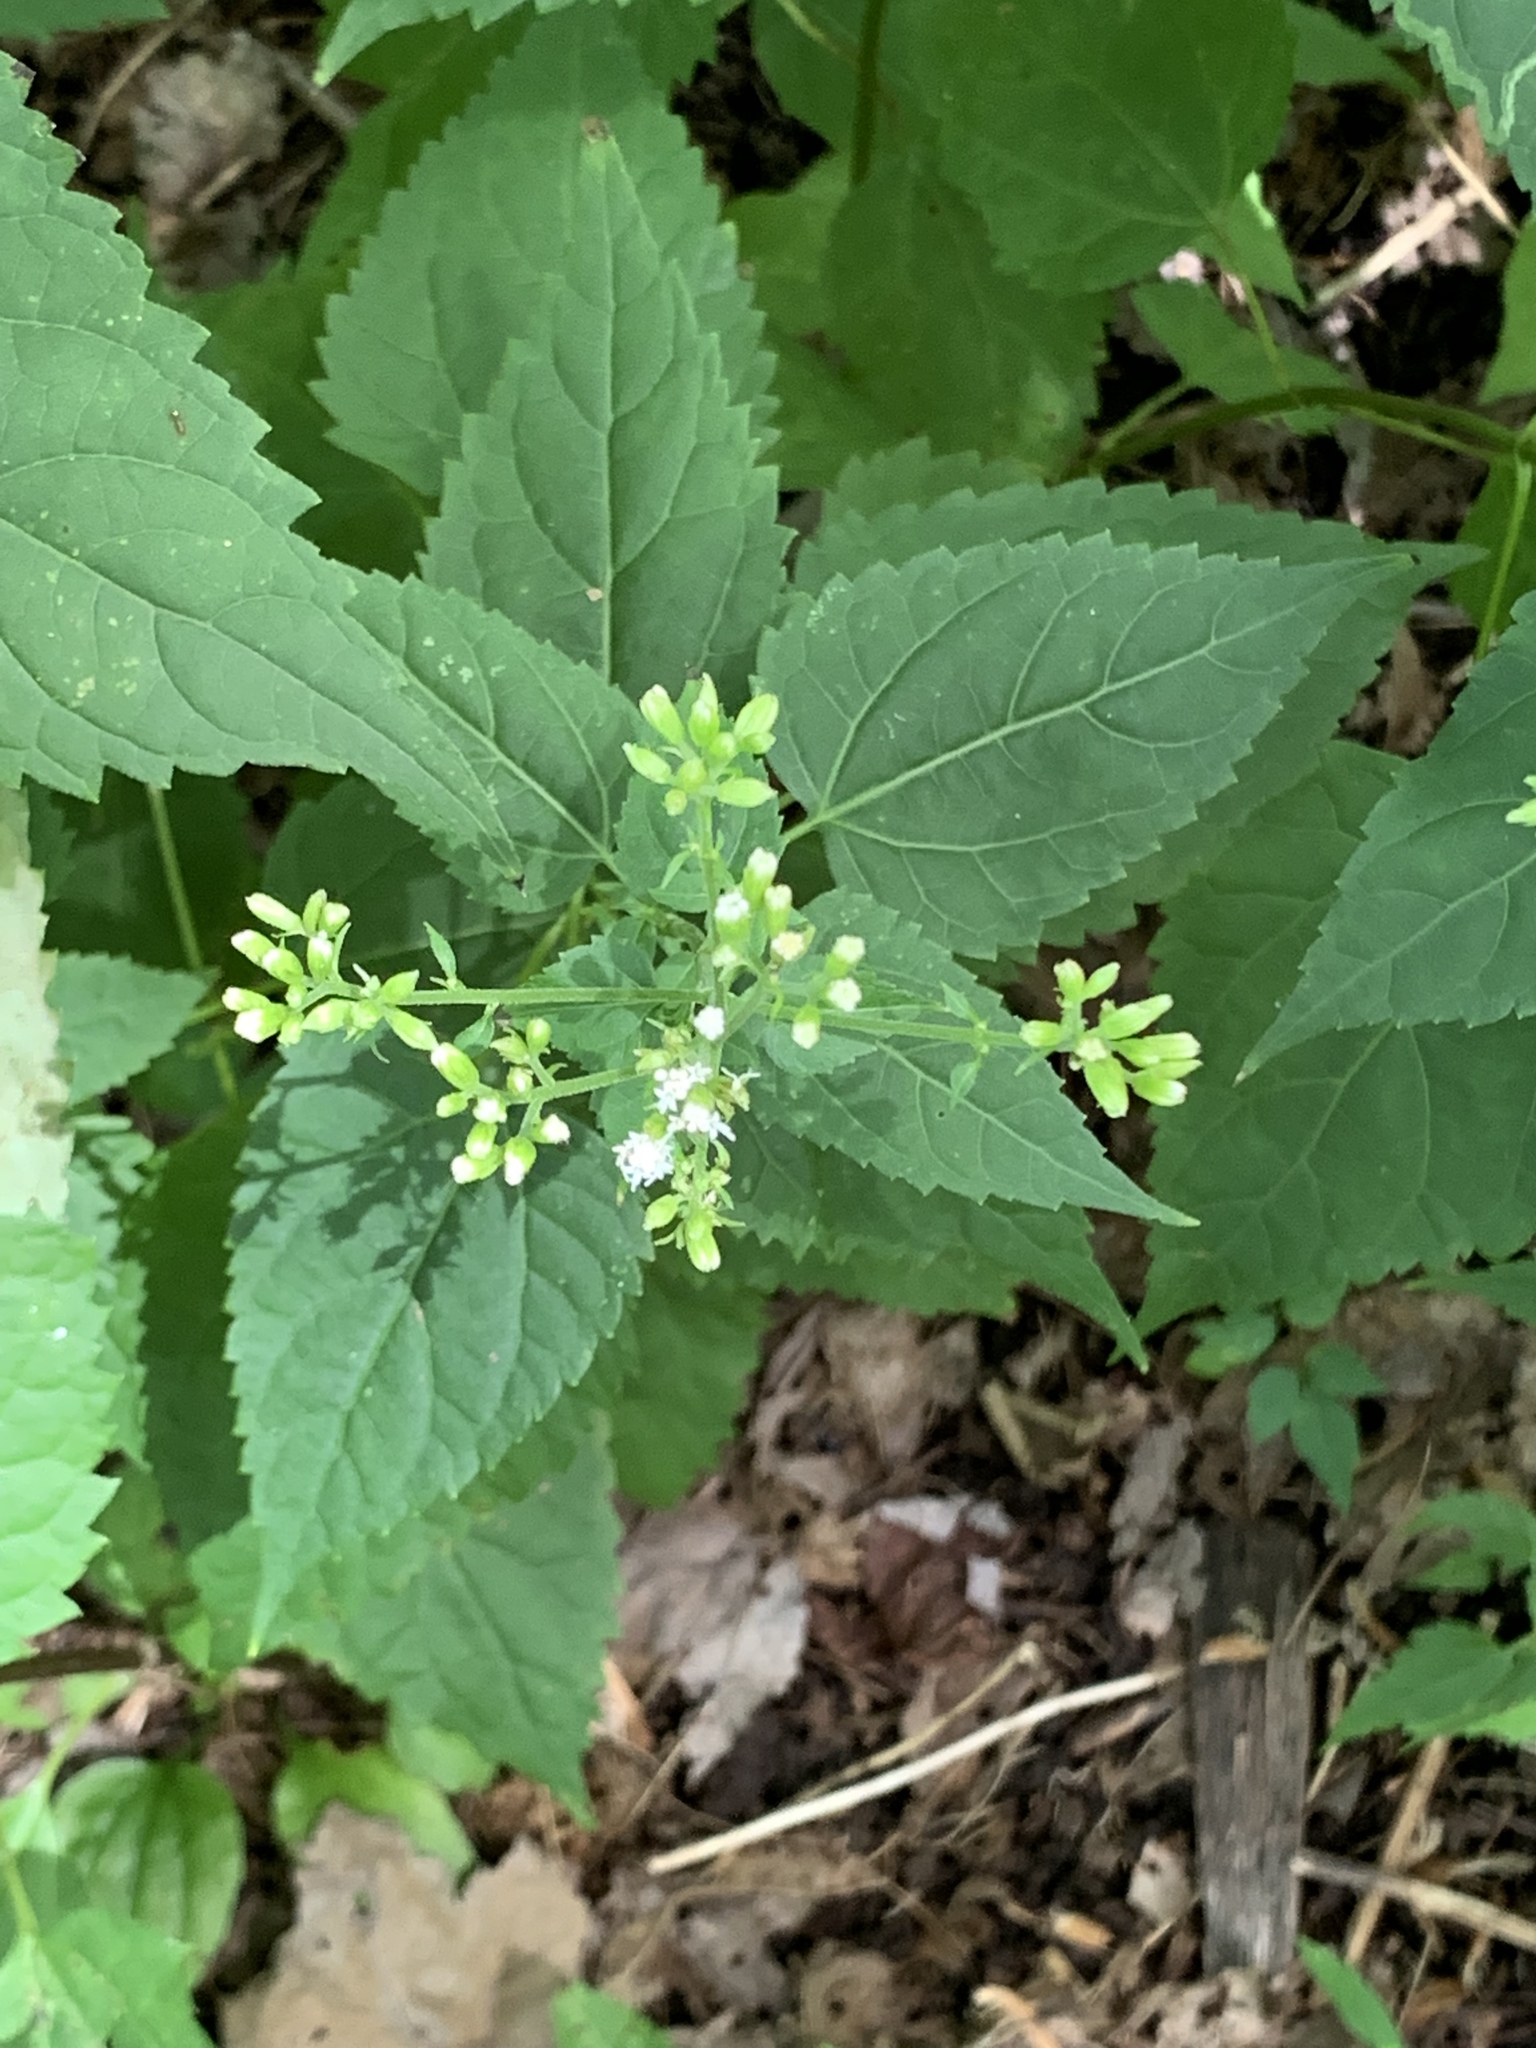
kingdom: Plantae
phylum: Tracheophyta
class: Magnoliopsida
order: Asterales
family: Asteraceae
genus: Ageratina
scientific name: Ageratina altissima
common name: White snakeroot
